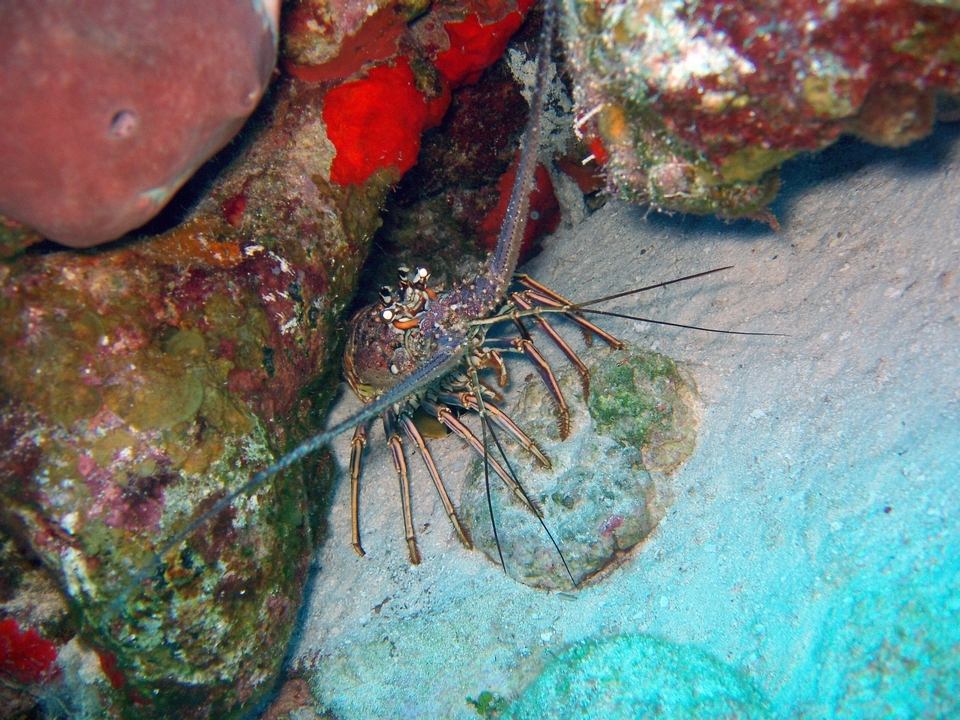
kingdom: Animalia
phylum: Arthropoda
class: Malacostraca
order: Decapoda
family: Palinuridae
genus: Panulirus
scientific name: Panulirus argus
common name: Caribbean spiny lobster
